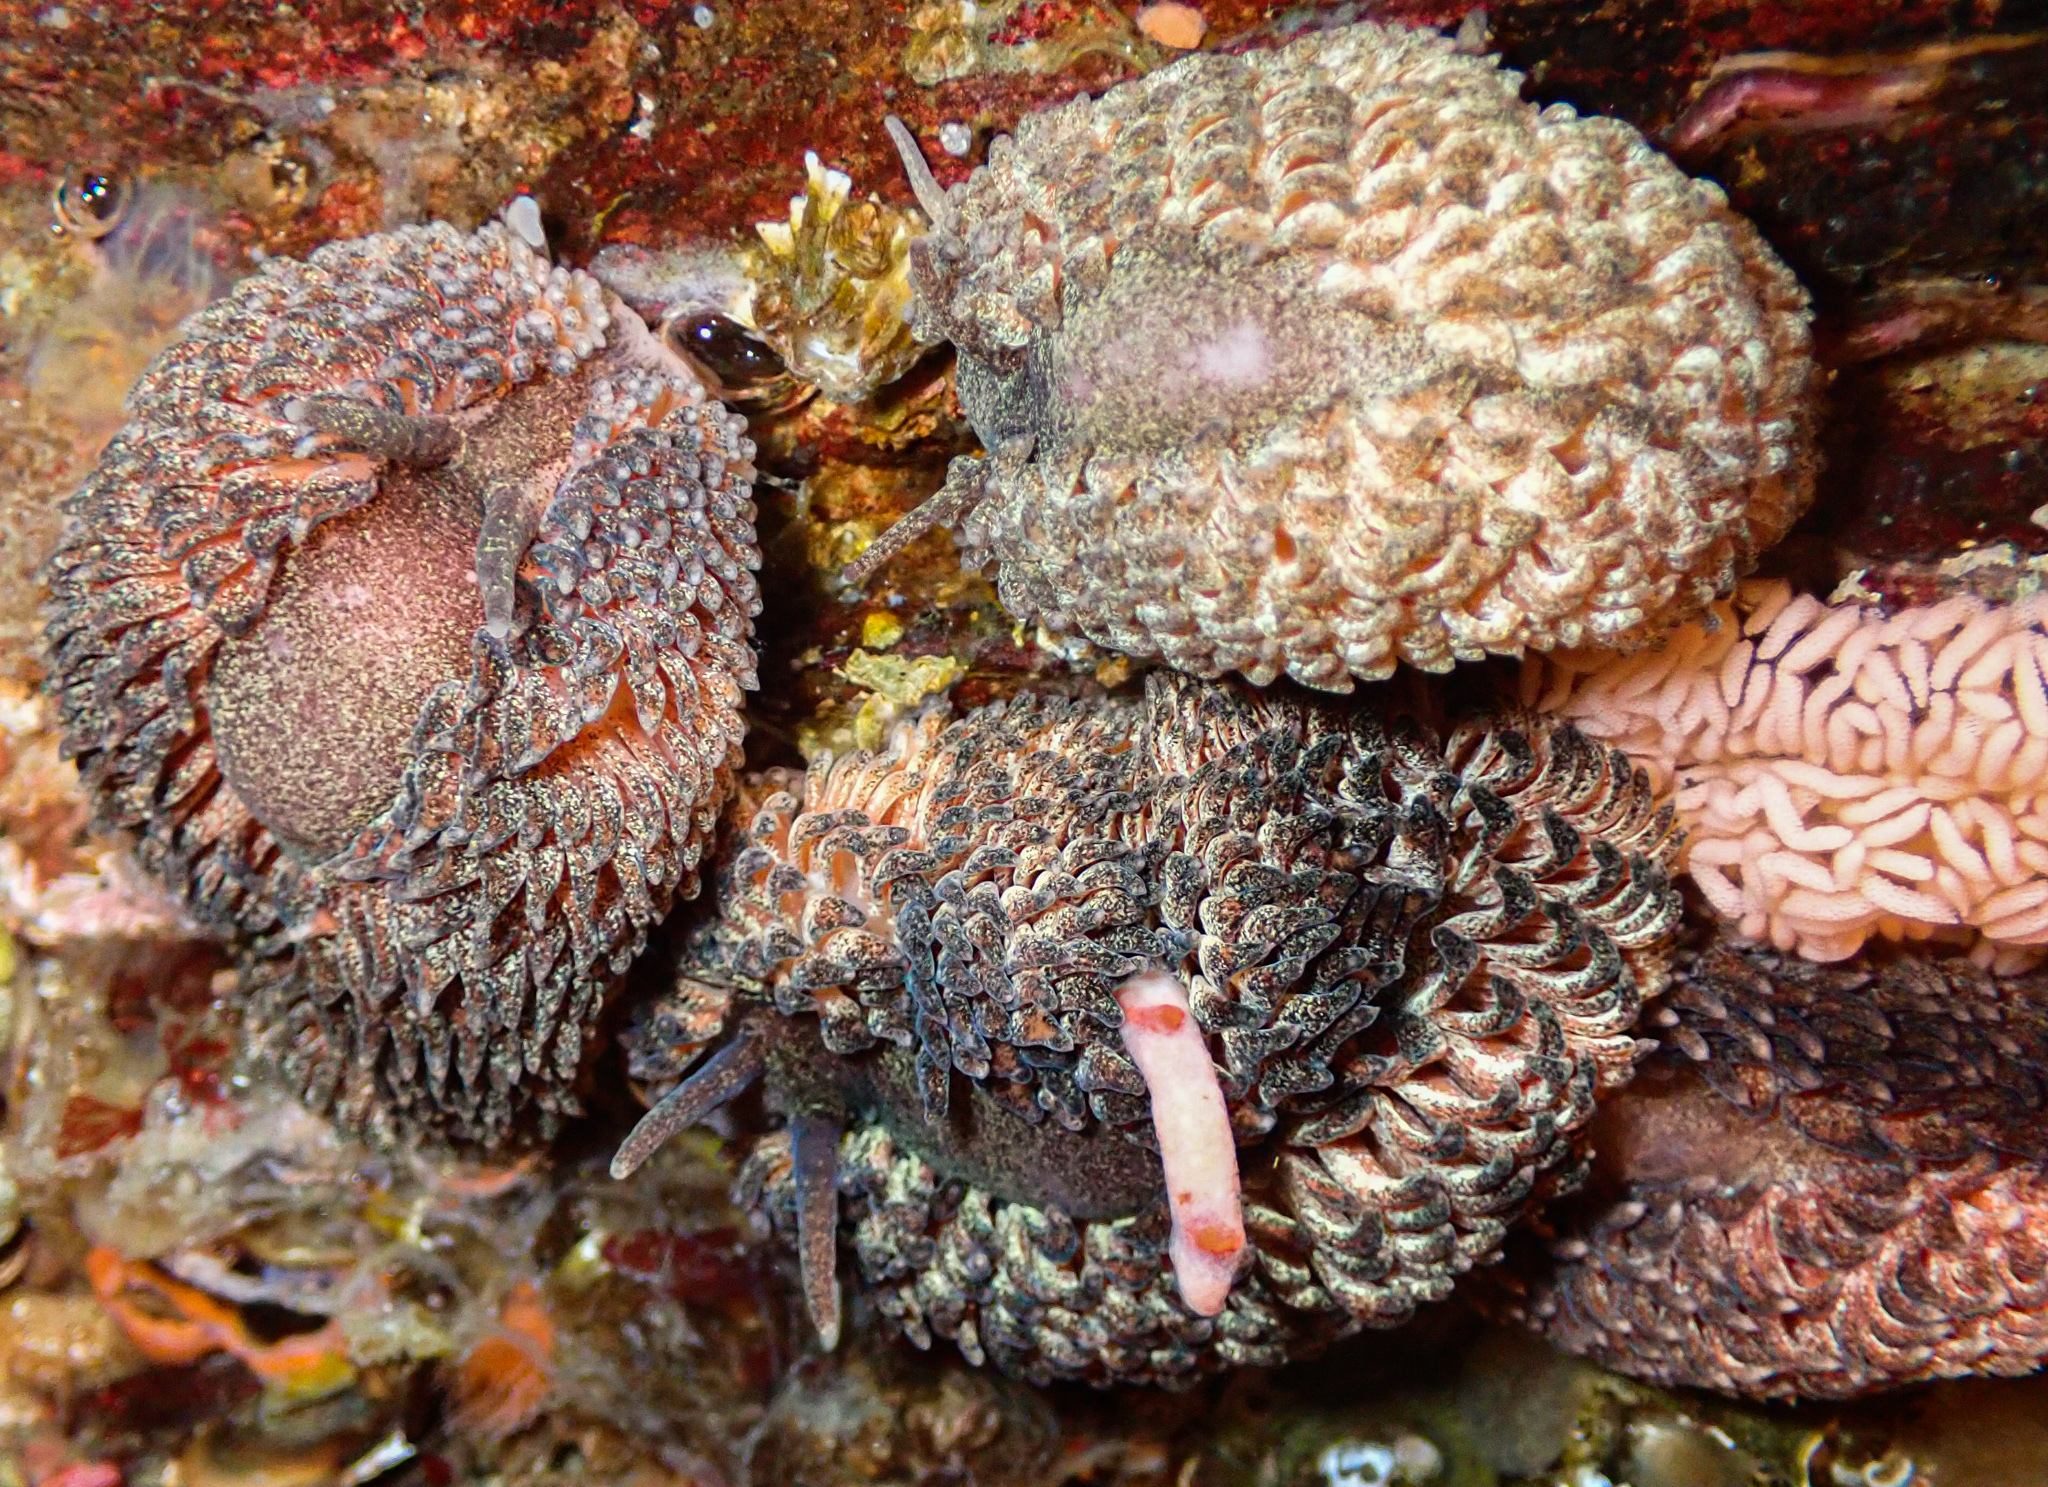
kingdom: Animalia
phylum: Mollusca
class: Gastropoda
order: Nudibranchia
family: Aeolidiidae
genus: Aeolidia
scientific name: Aeolidia papillosa
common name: Common grey sea slug
